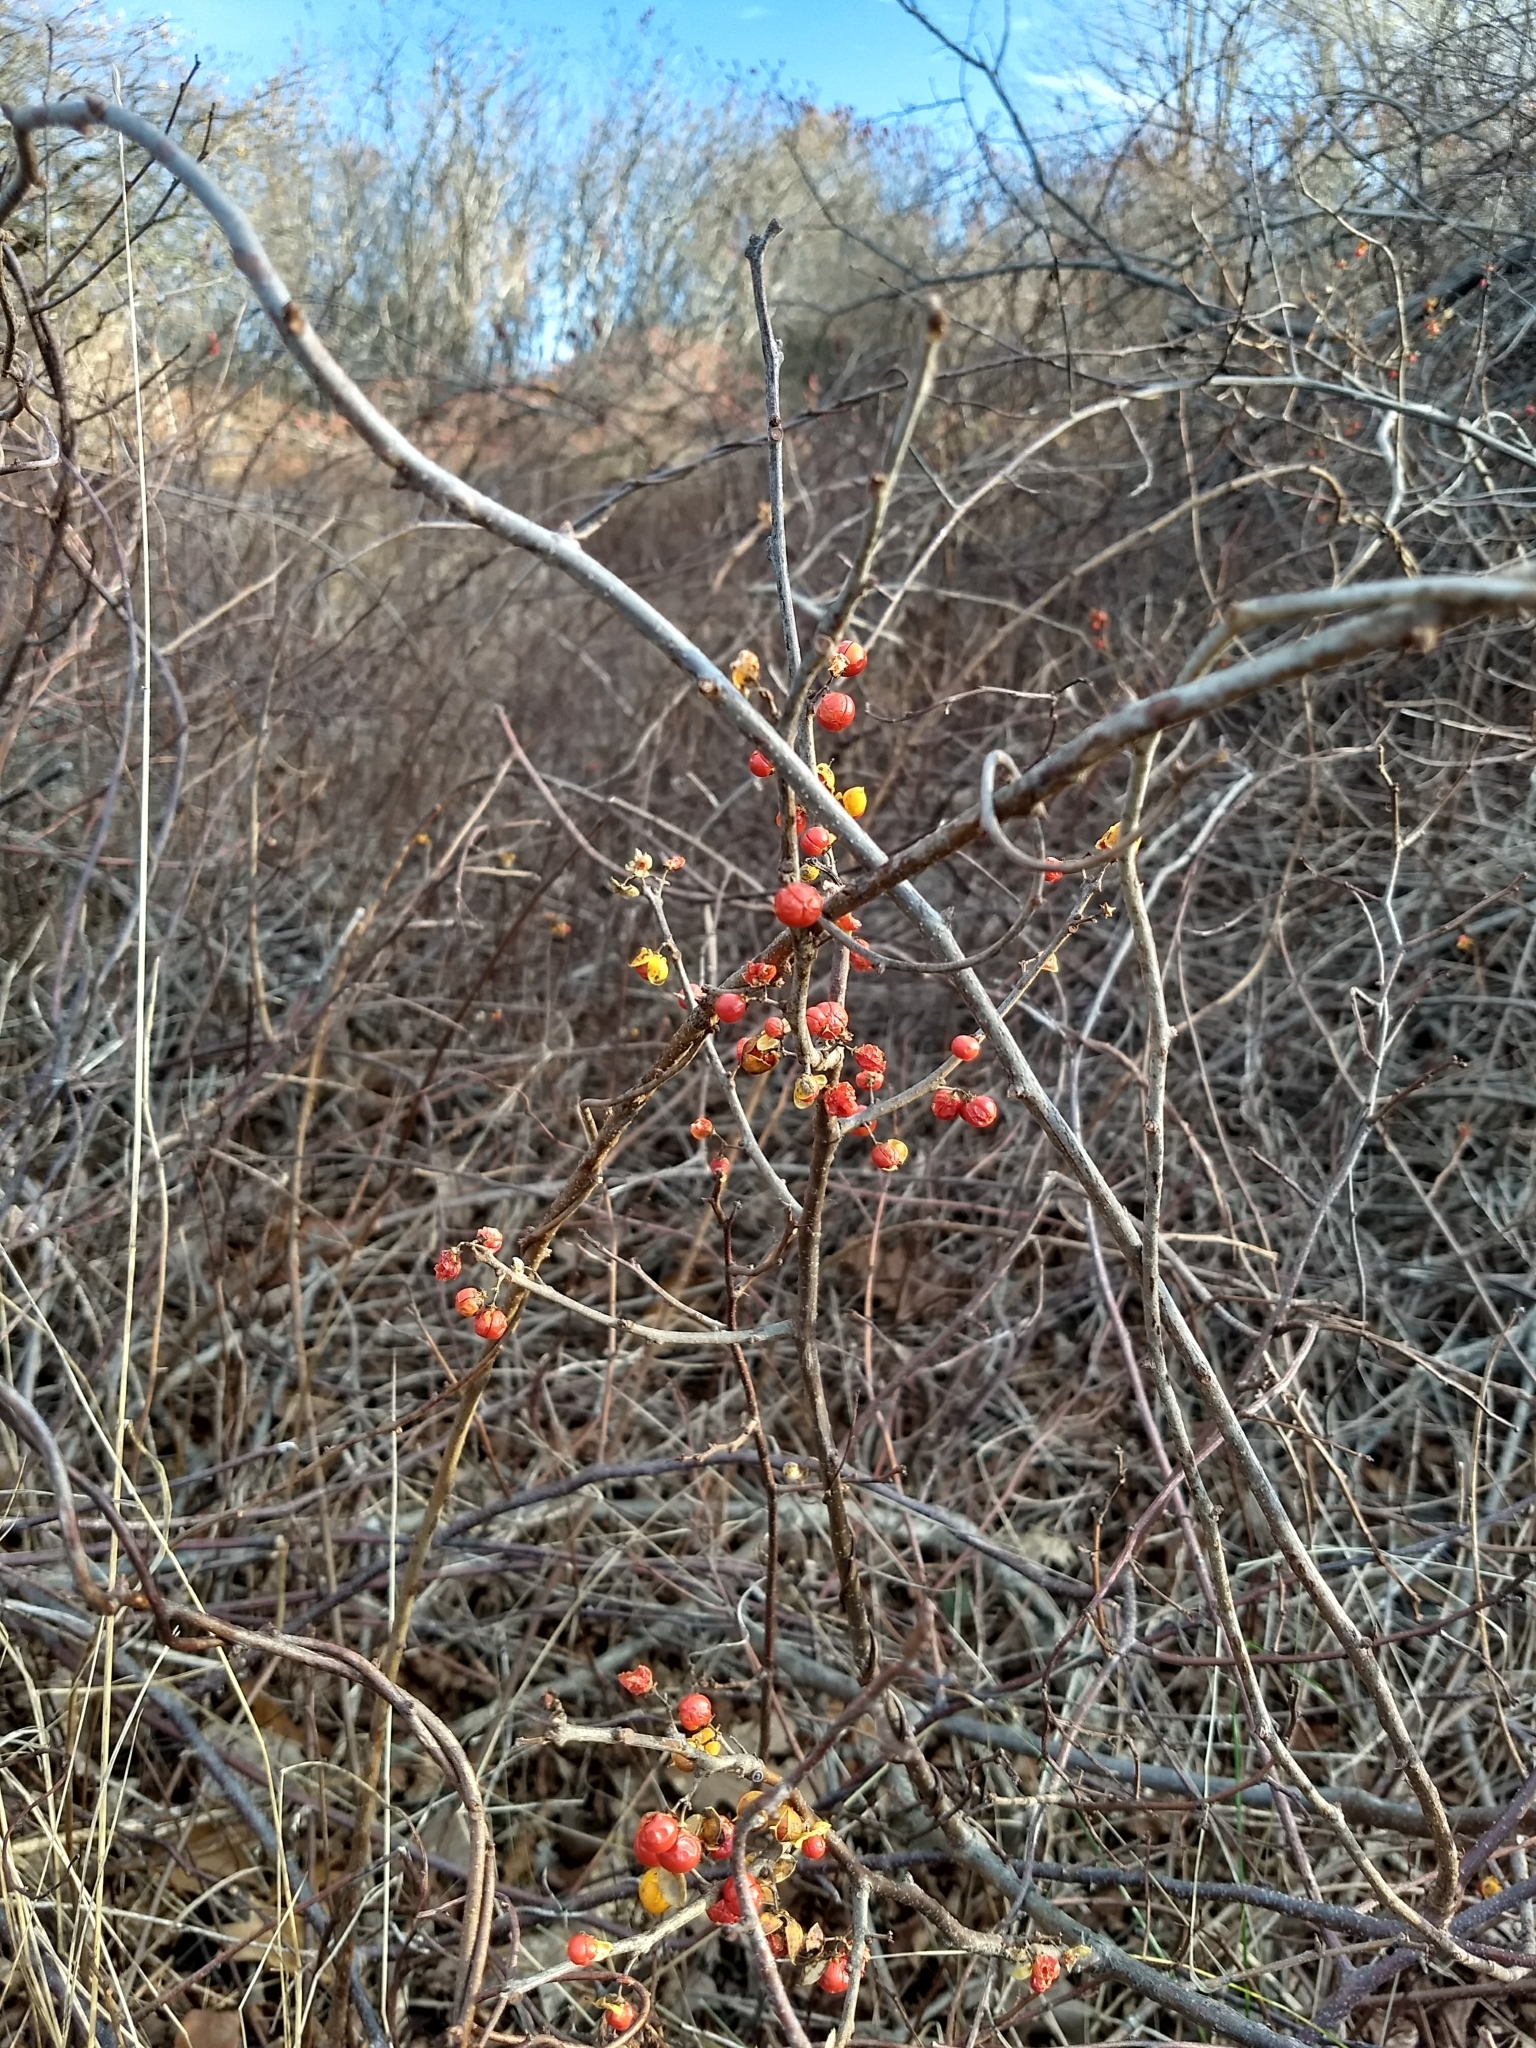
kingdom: Plantae
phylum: Tracheophyta
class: Magnoliopsida
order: Celastrales
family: Celastraceae
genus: Celastrus
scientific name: Celastrus orbiculatus
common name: Oriental bittersweet
